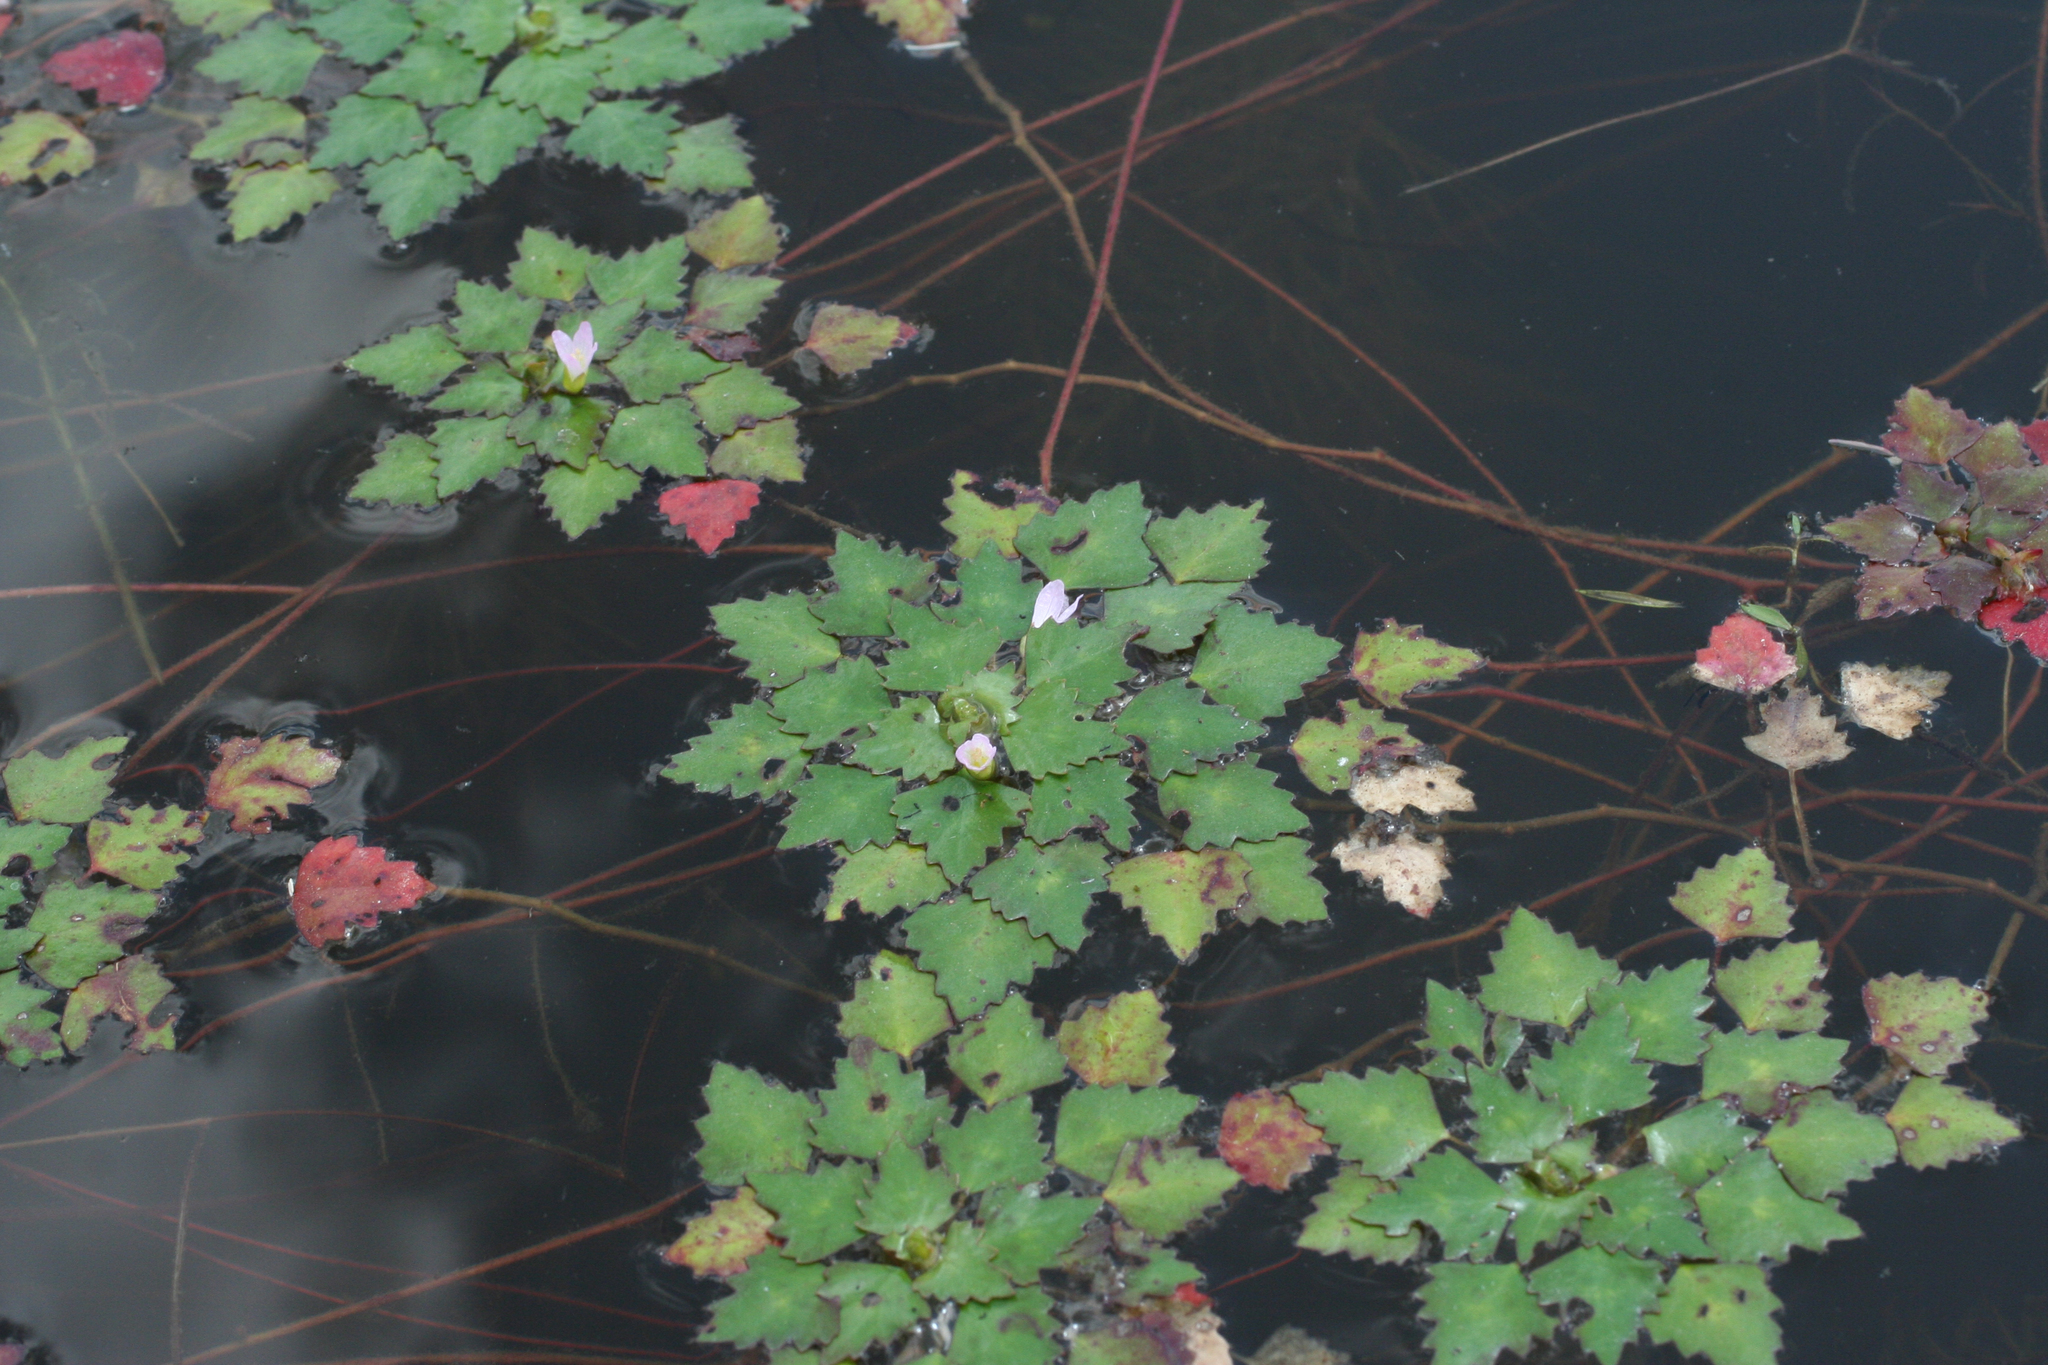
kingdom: Plantae
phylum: Tracheophyta
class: Magnoliopsida
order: Myrtales
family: Lythraceae
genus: Trapa
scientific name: Trapa incisa
